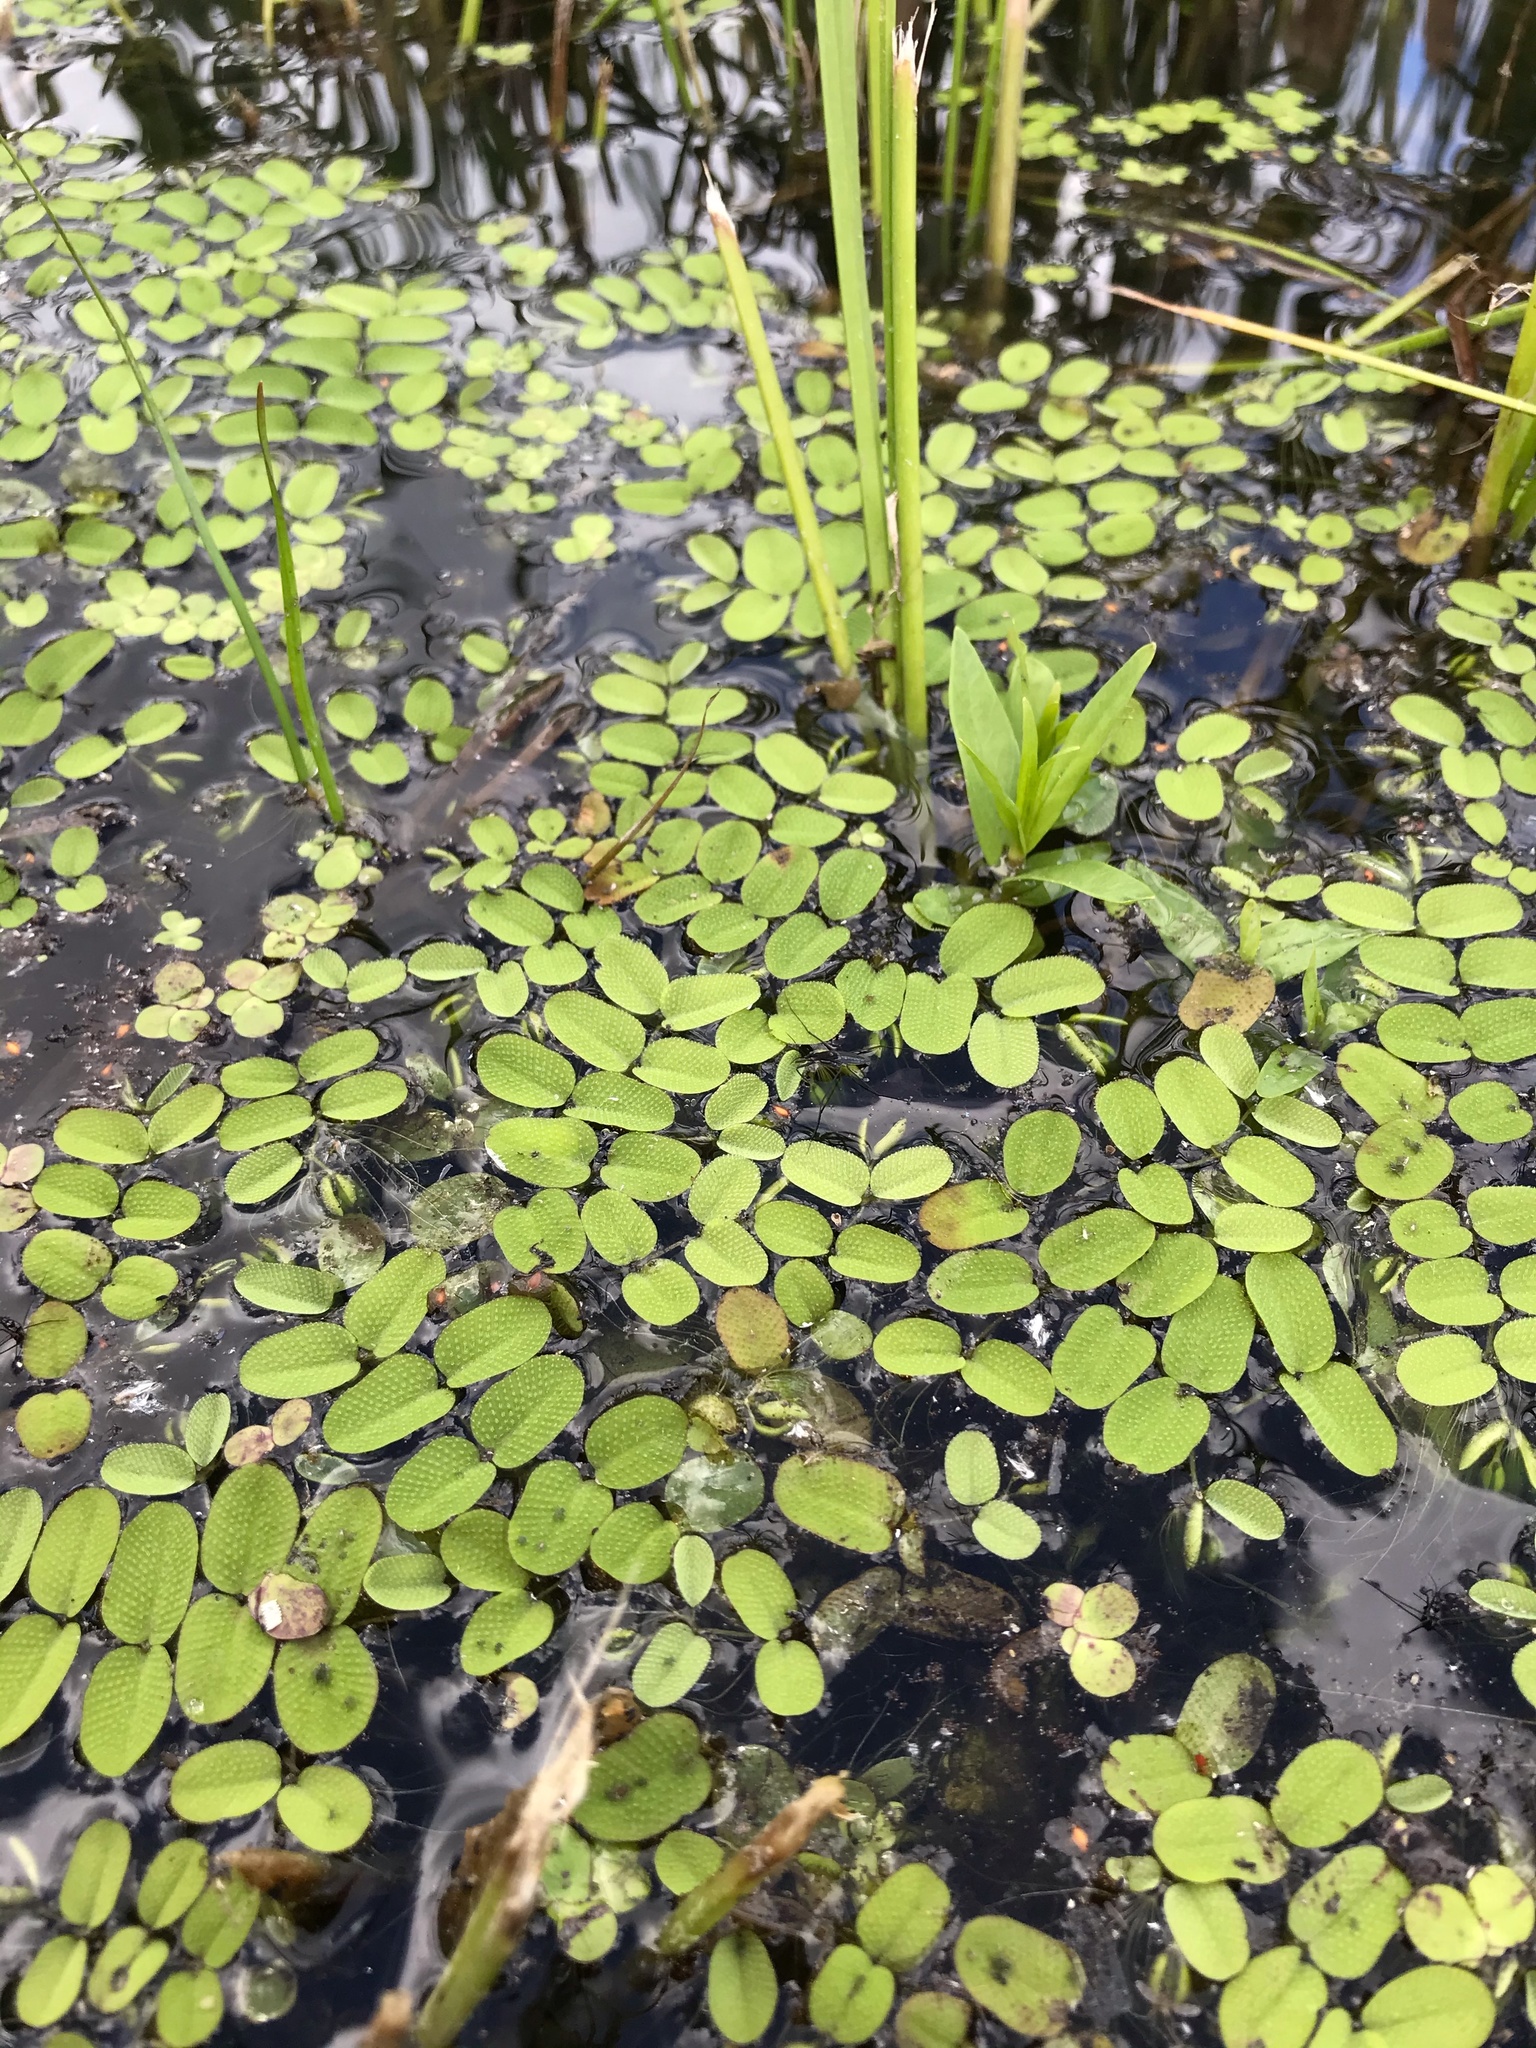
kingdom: Plantae
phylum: Tracheophyta
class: Polypodiopsida
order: Salviniales
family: Salviniaceae
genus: Salvinia
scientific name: Salvinia natans
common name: Floating fern
